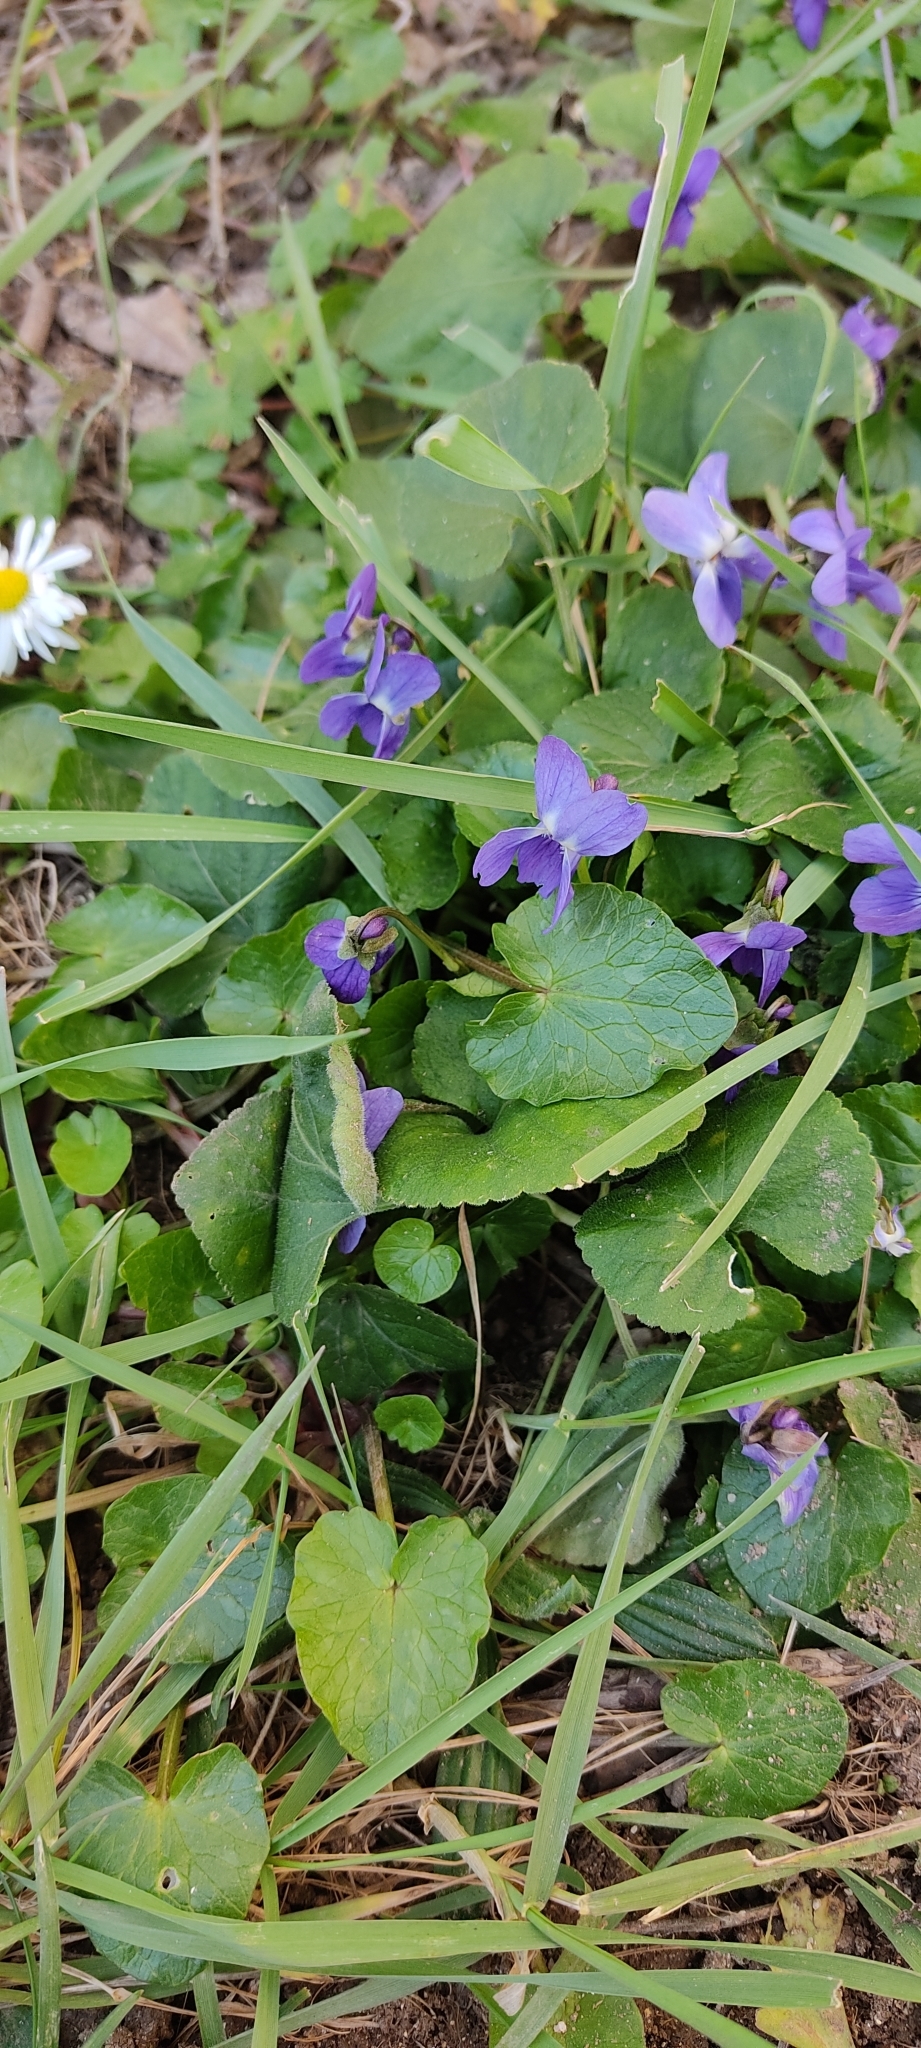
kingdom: Plantae
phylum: Tracheophyta
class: Magnoliopsida
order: Malpighiales
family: Violaceae
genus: Viola
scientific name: Viola odorata
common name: Sweet violet
